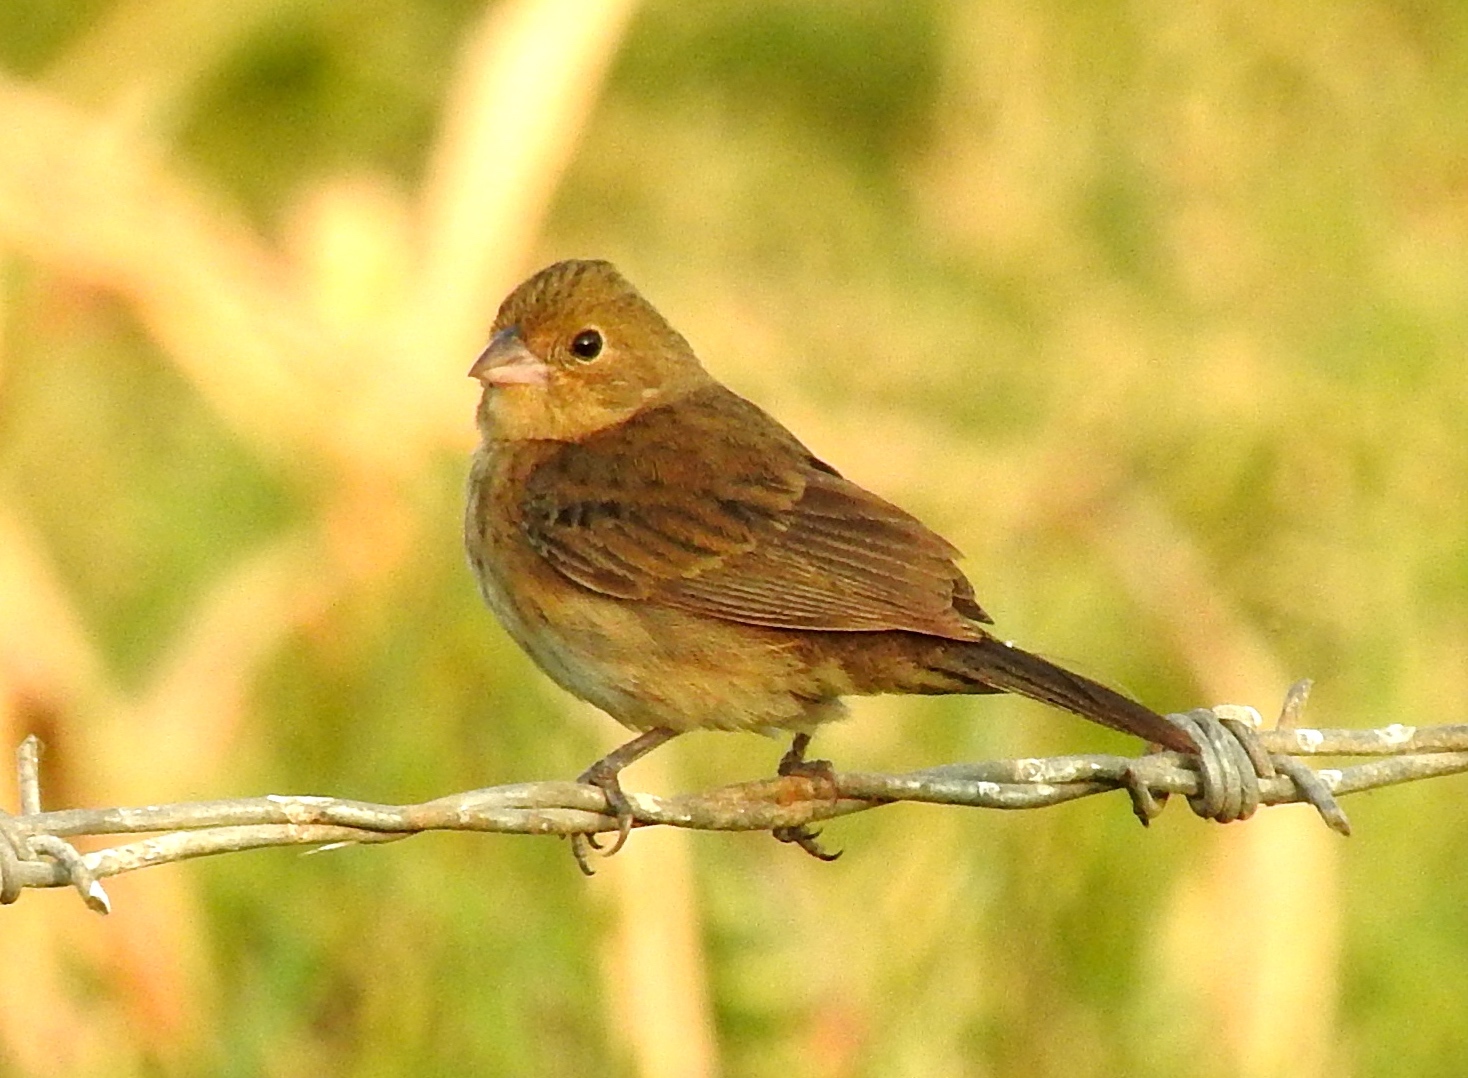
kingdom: Animalia
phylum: Chordata
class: Aves
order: Passeriformes
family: Thraupidae
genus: Volatinia
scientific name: Volatinia jacarina
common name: Blue-black grassquit
